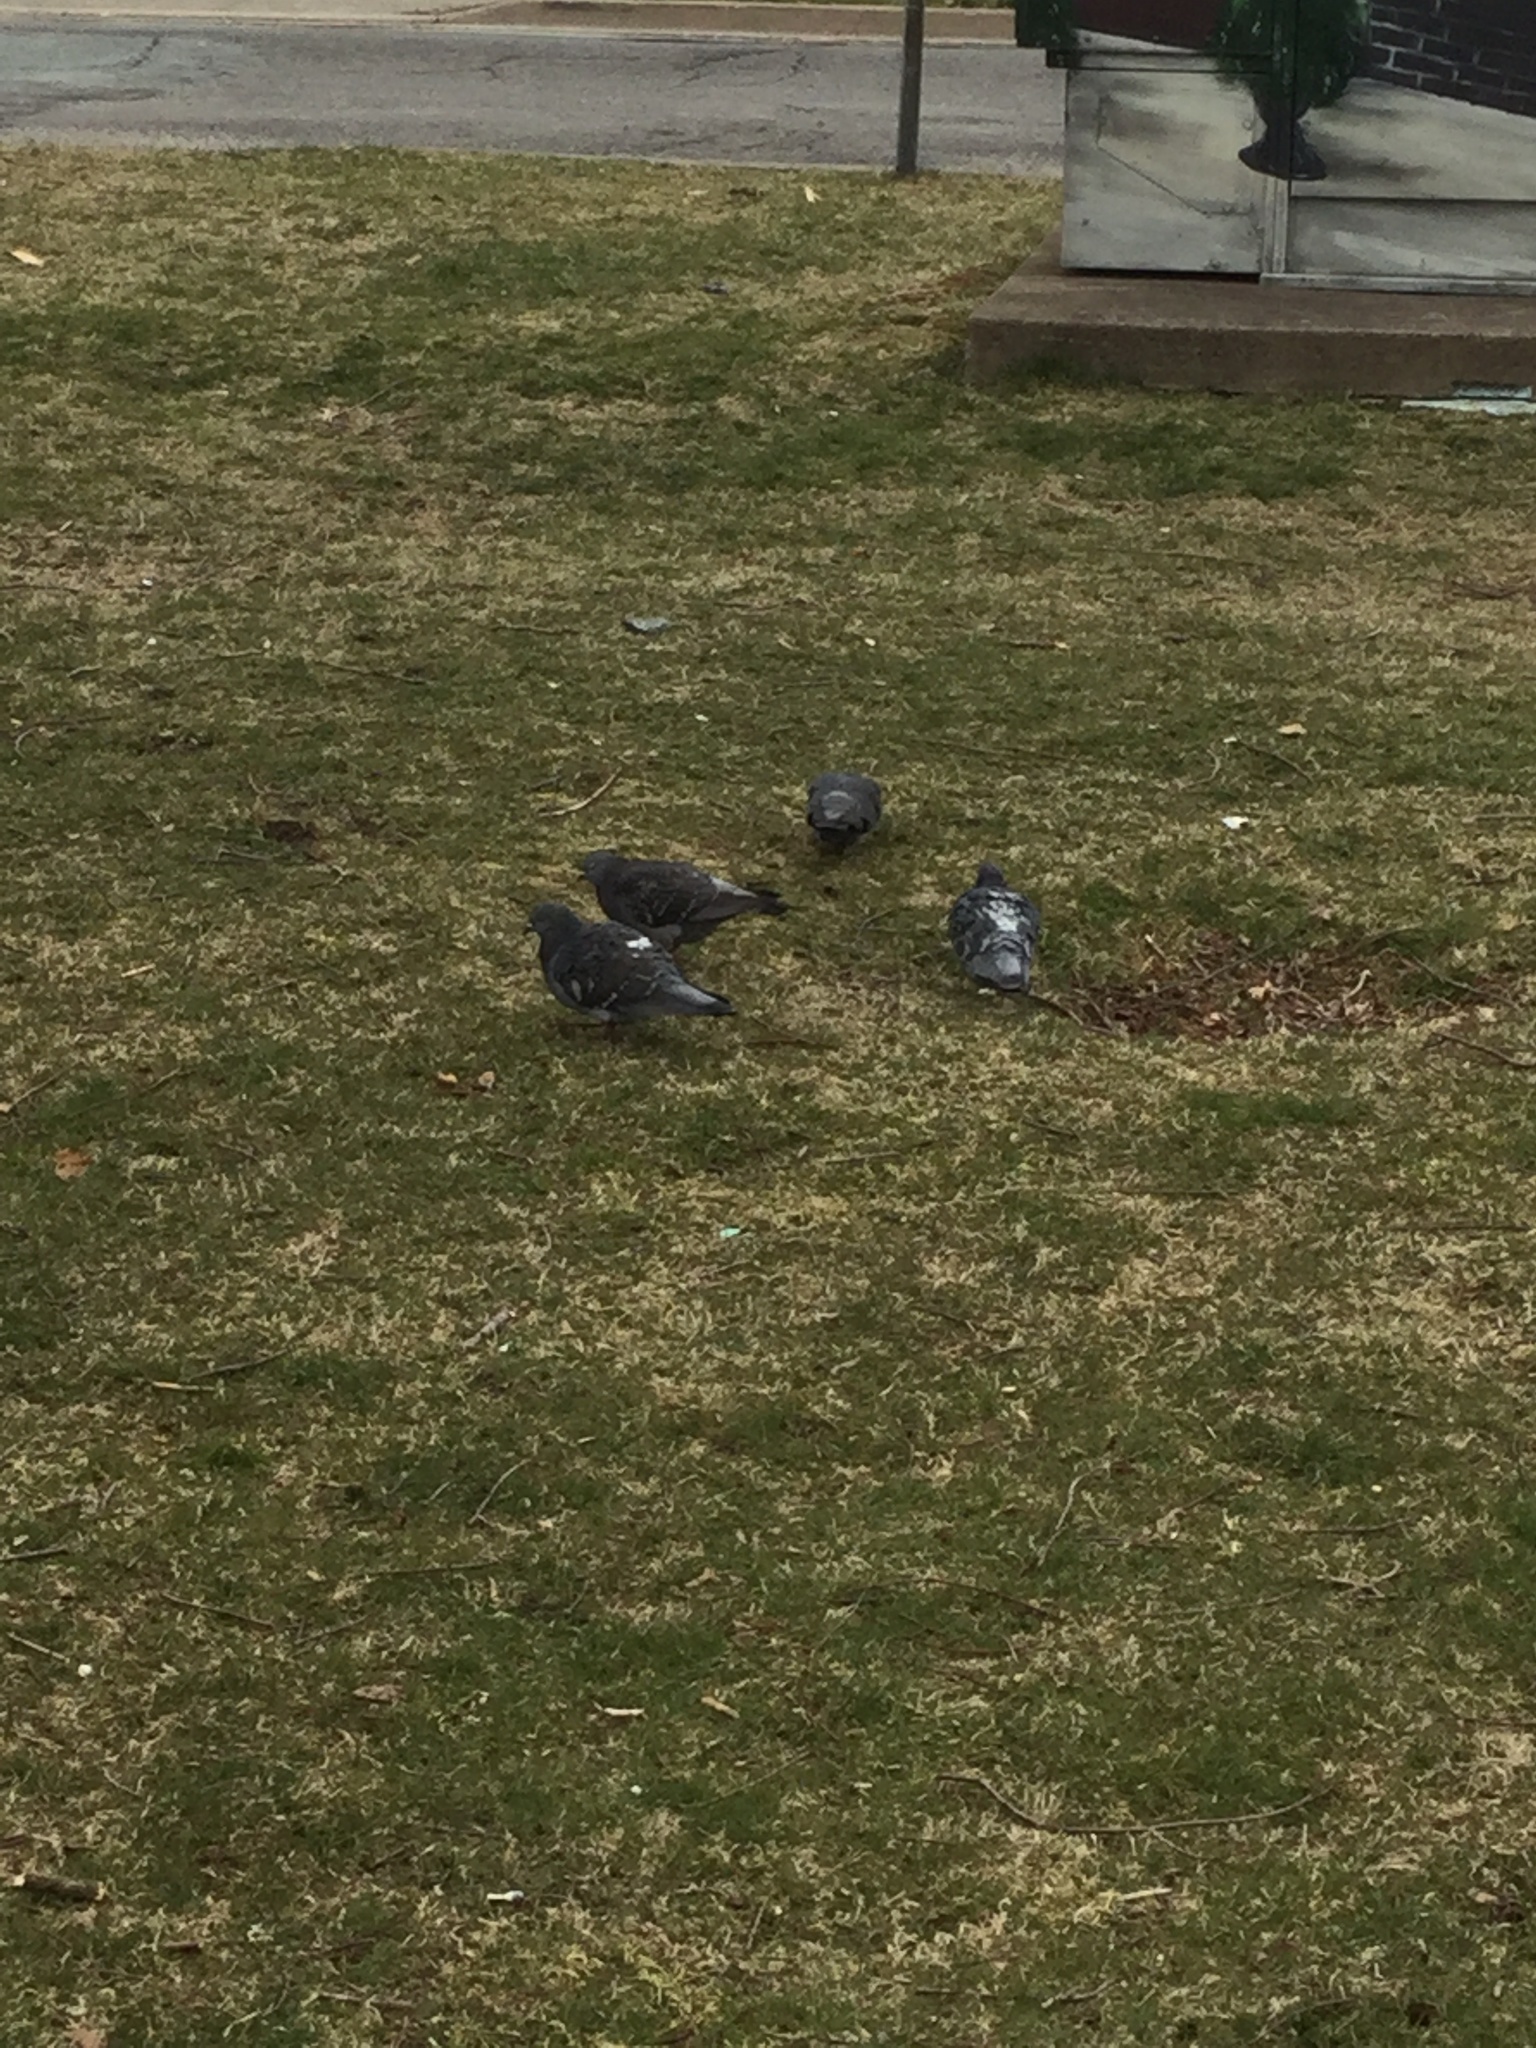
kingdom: Animalia
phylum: Chordata
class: Aves
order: Columbiformes
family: Columbidae
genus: Columba
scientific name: Columba livia
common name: Rock pigeon
